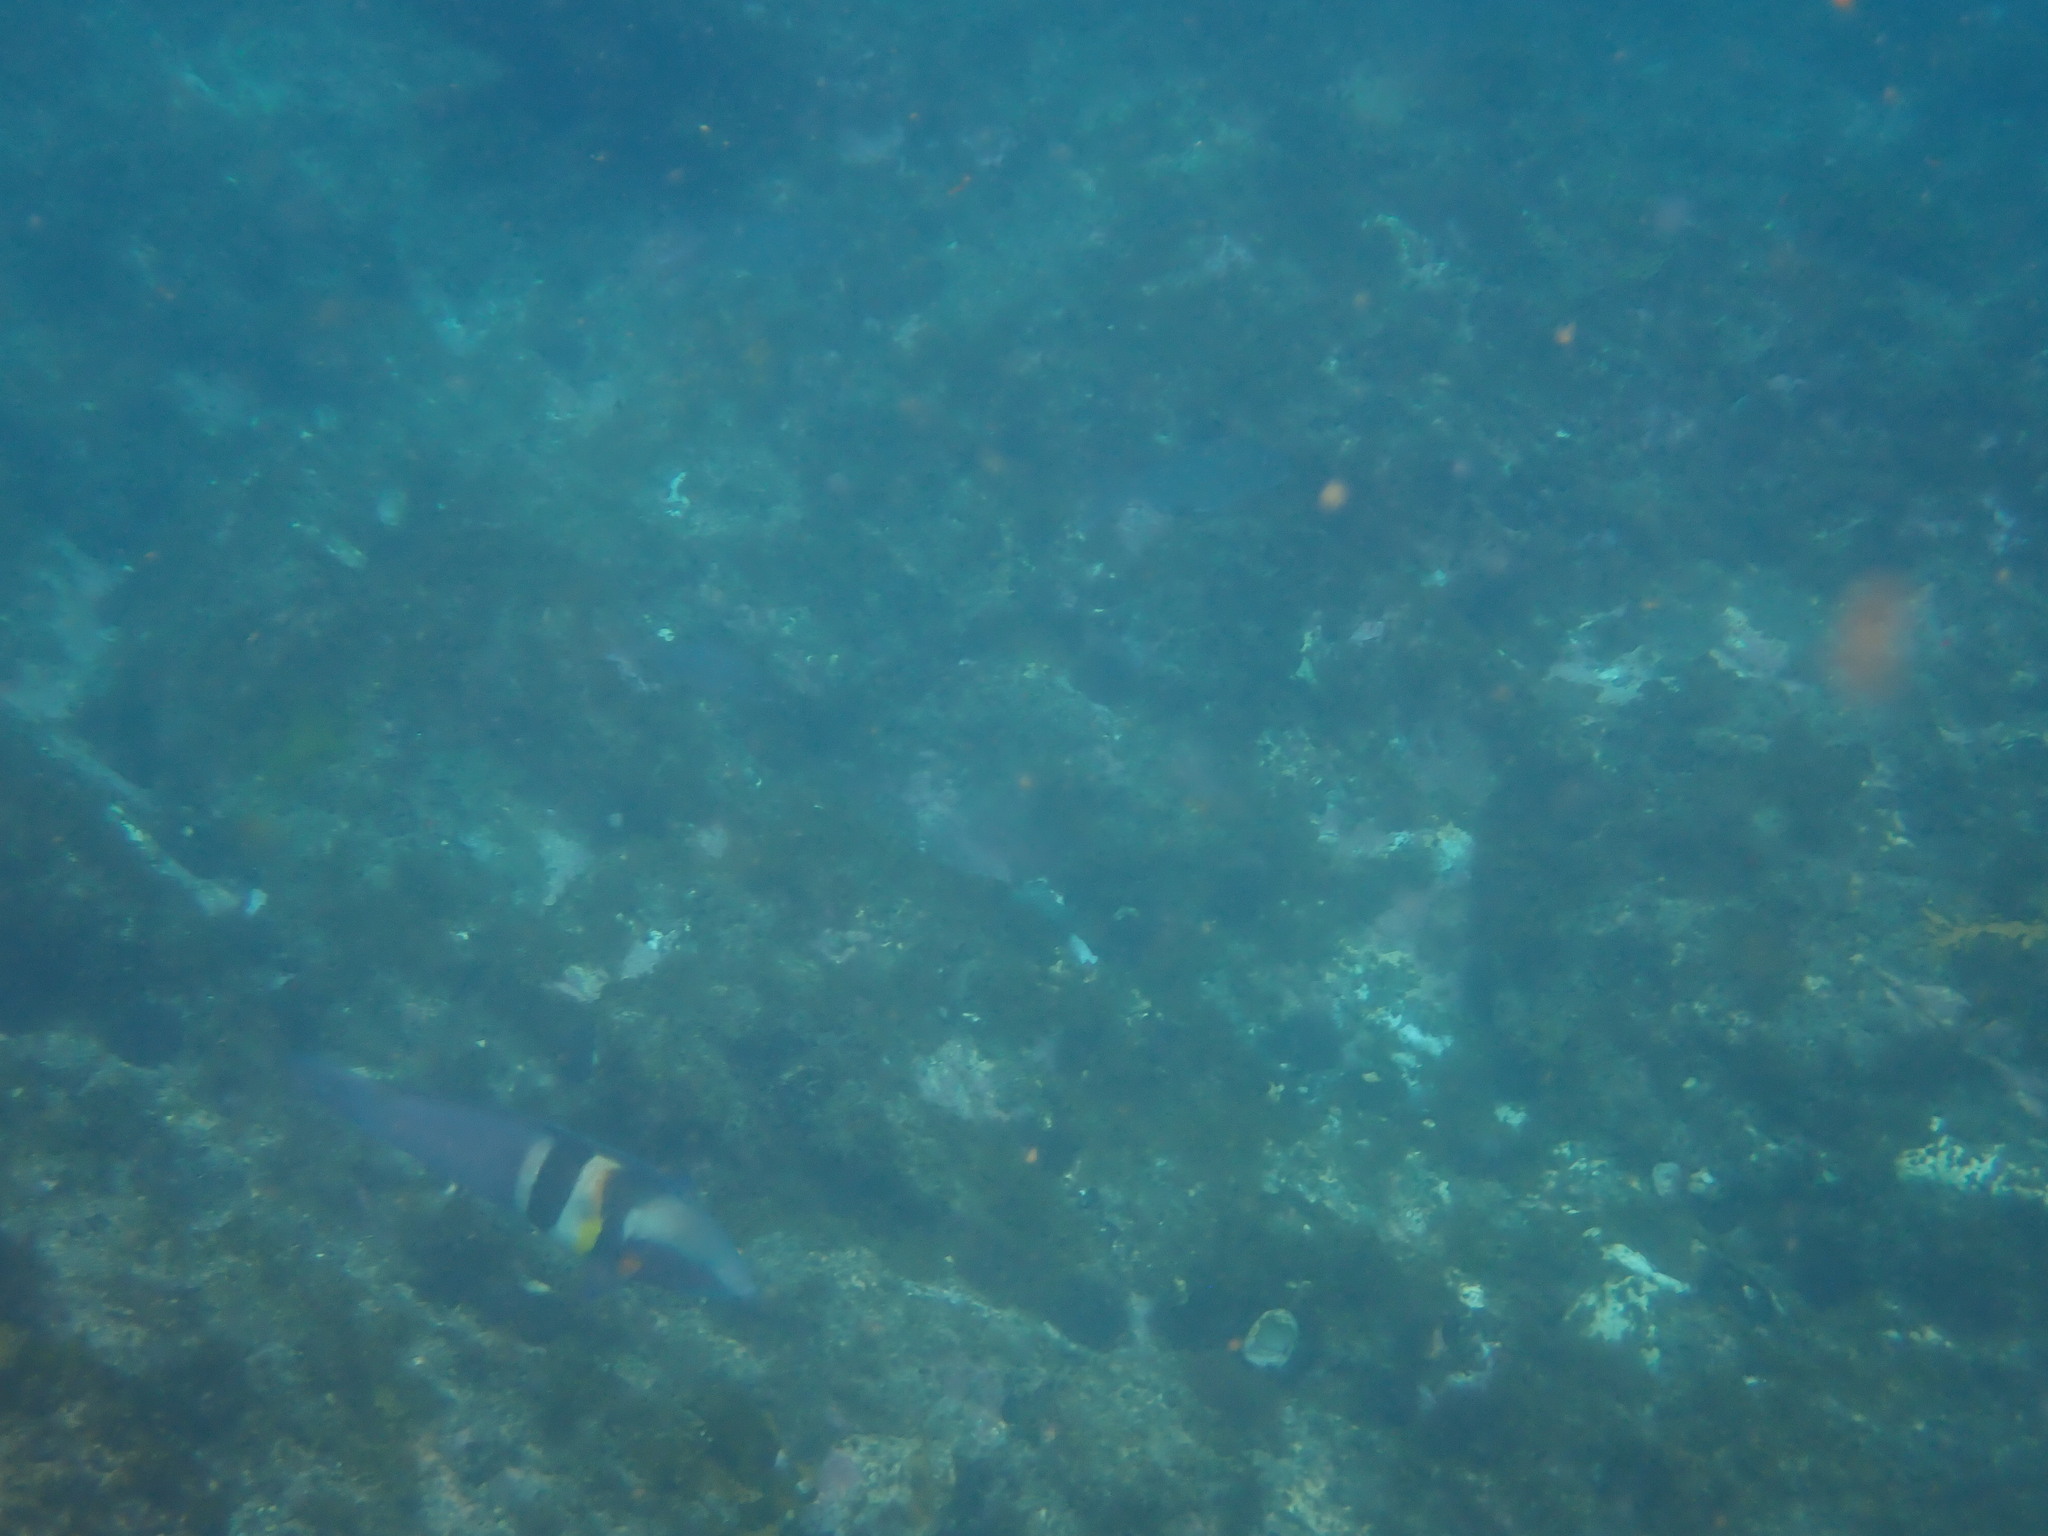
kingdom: Animalia
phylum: Chordata
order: Perciformes
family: Labridae
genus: Coris
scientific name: Coris sandeyeri
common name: Sandager's wrasse
